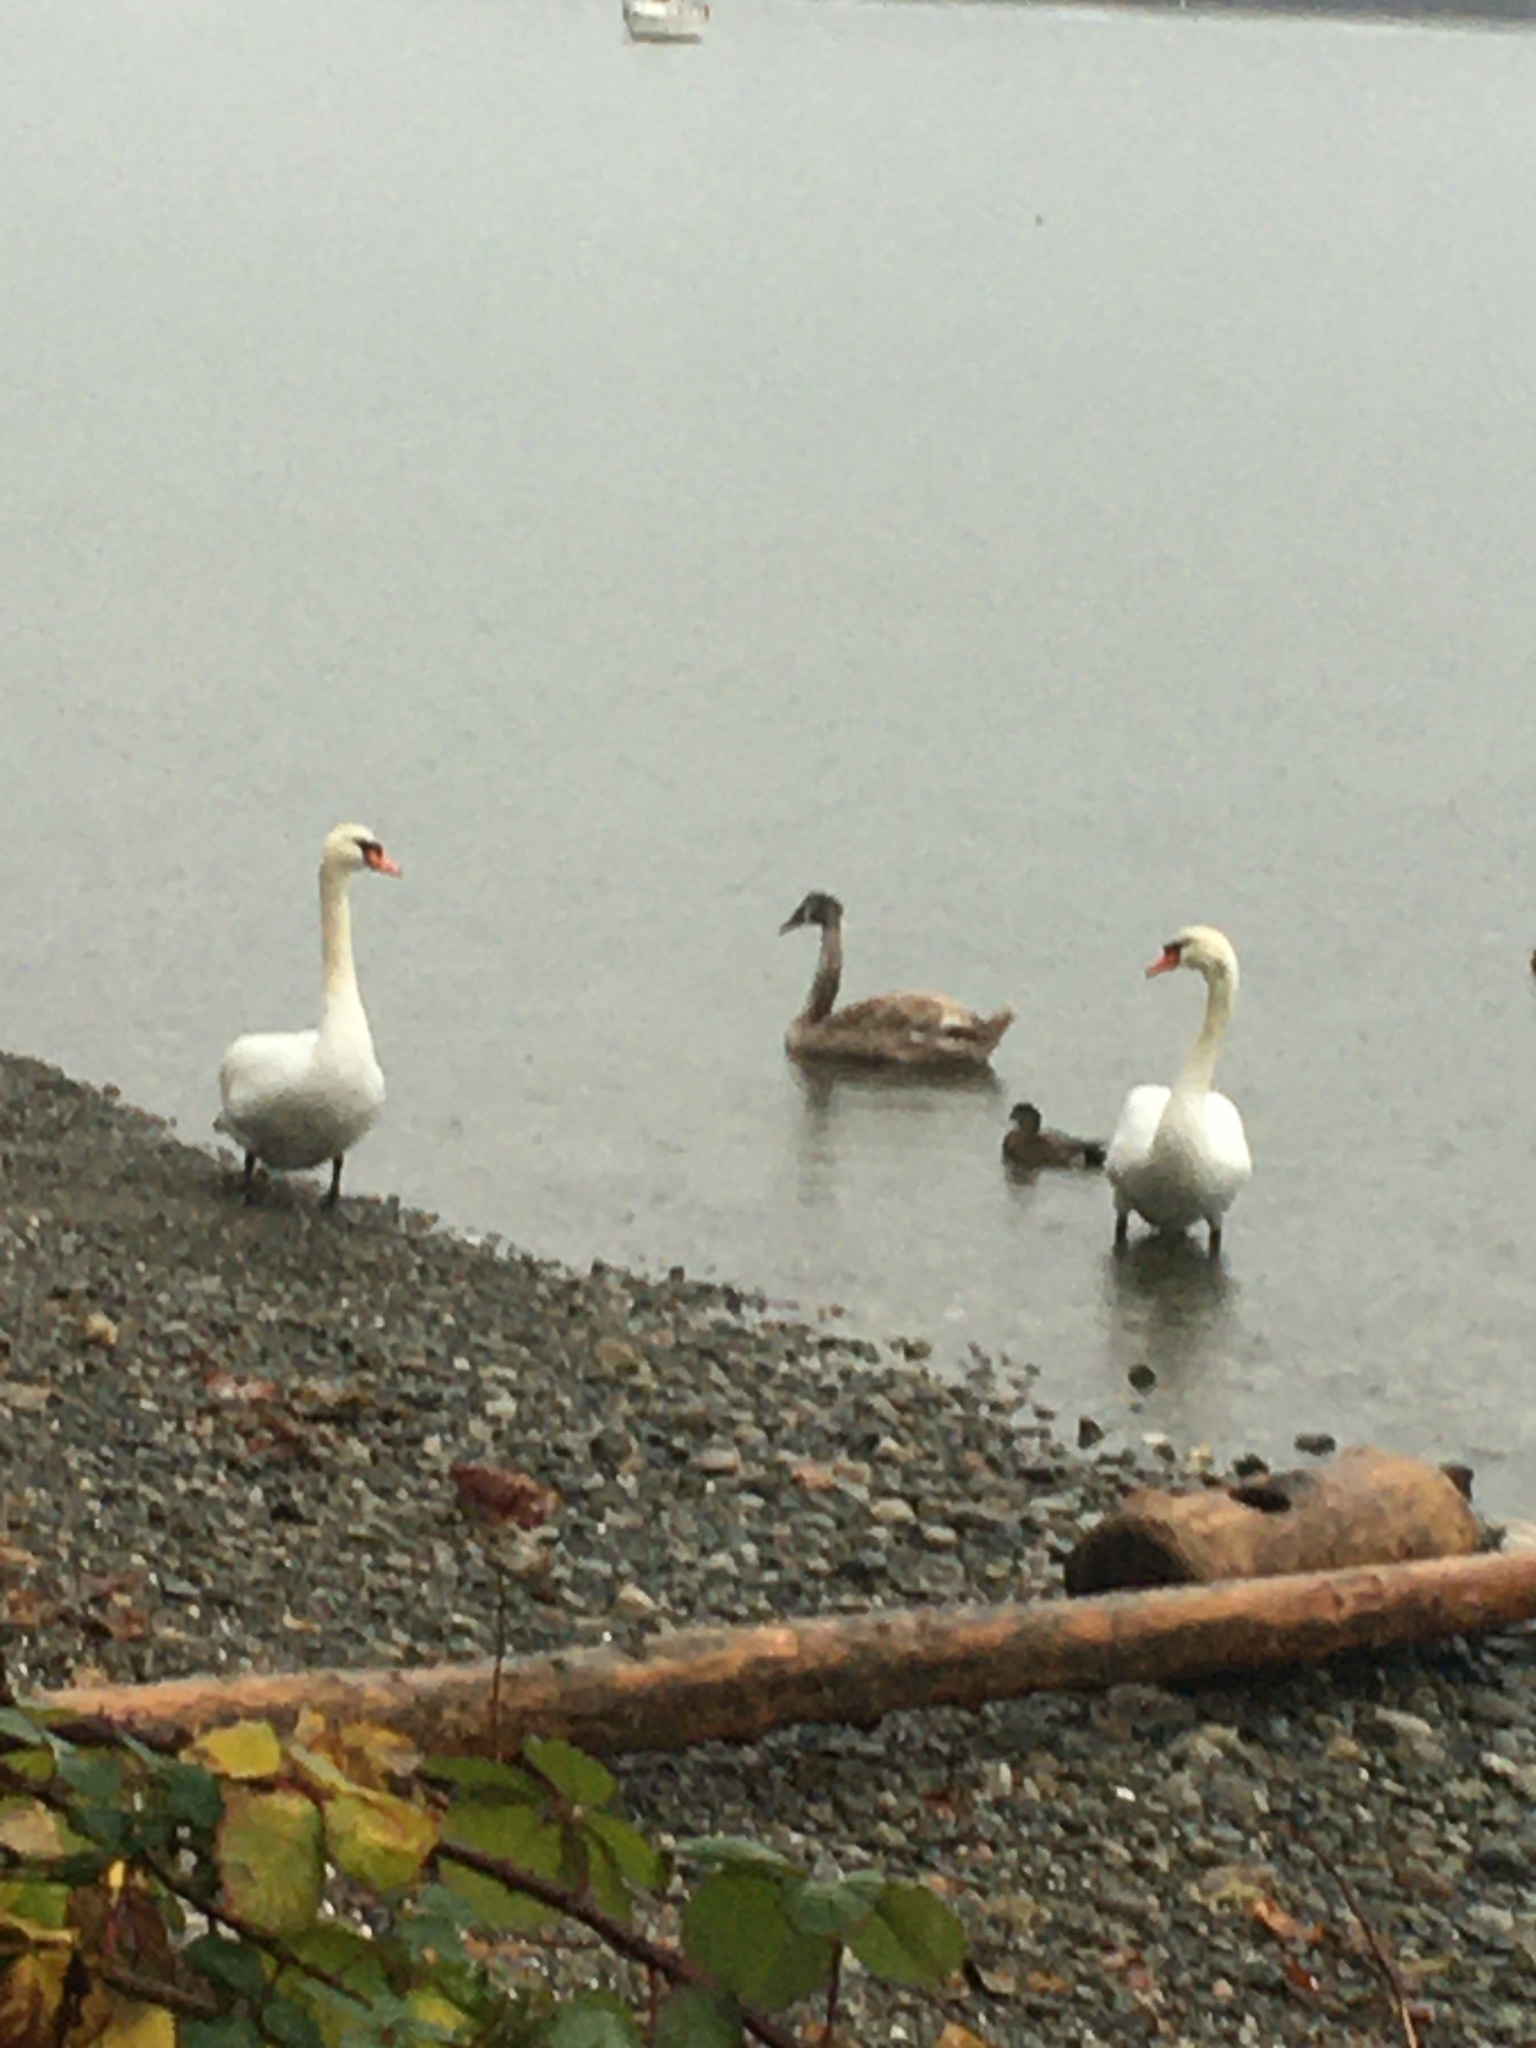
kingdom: Animalia
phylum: Chordata
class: Aves
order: Anseriformes
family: Anatidae
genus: Cygnus
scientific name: Cygnus olor
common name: Mute swan
